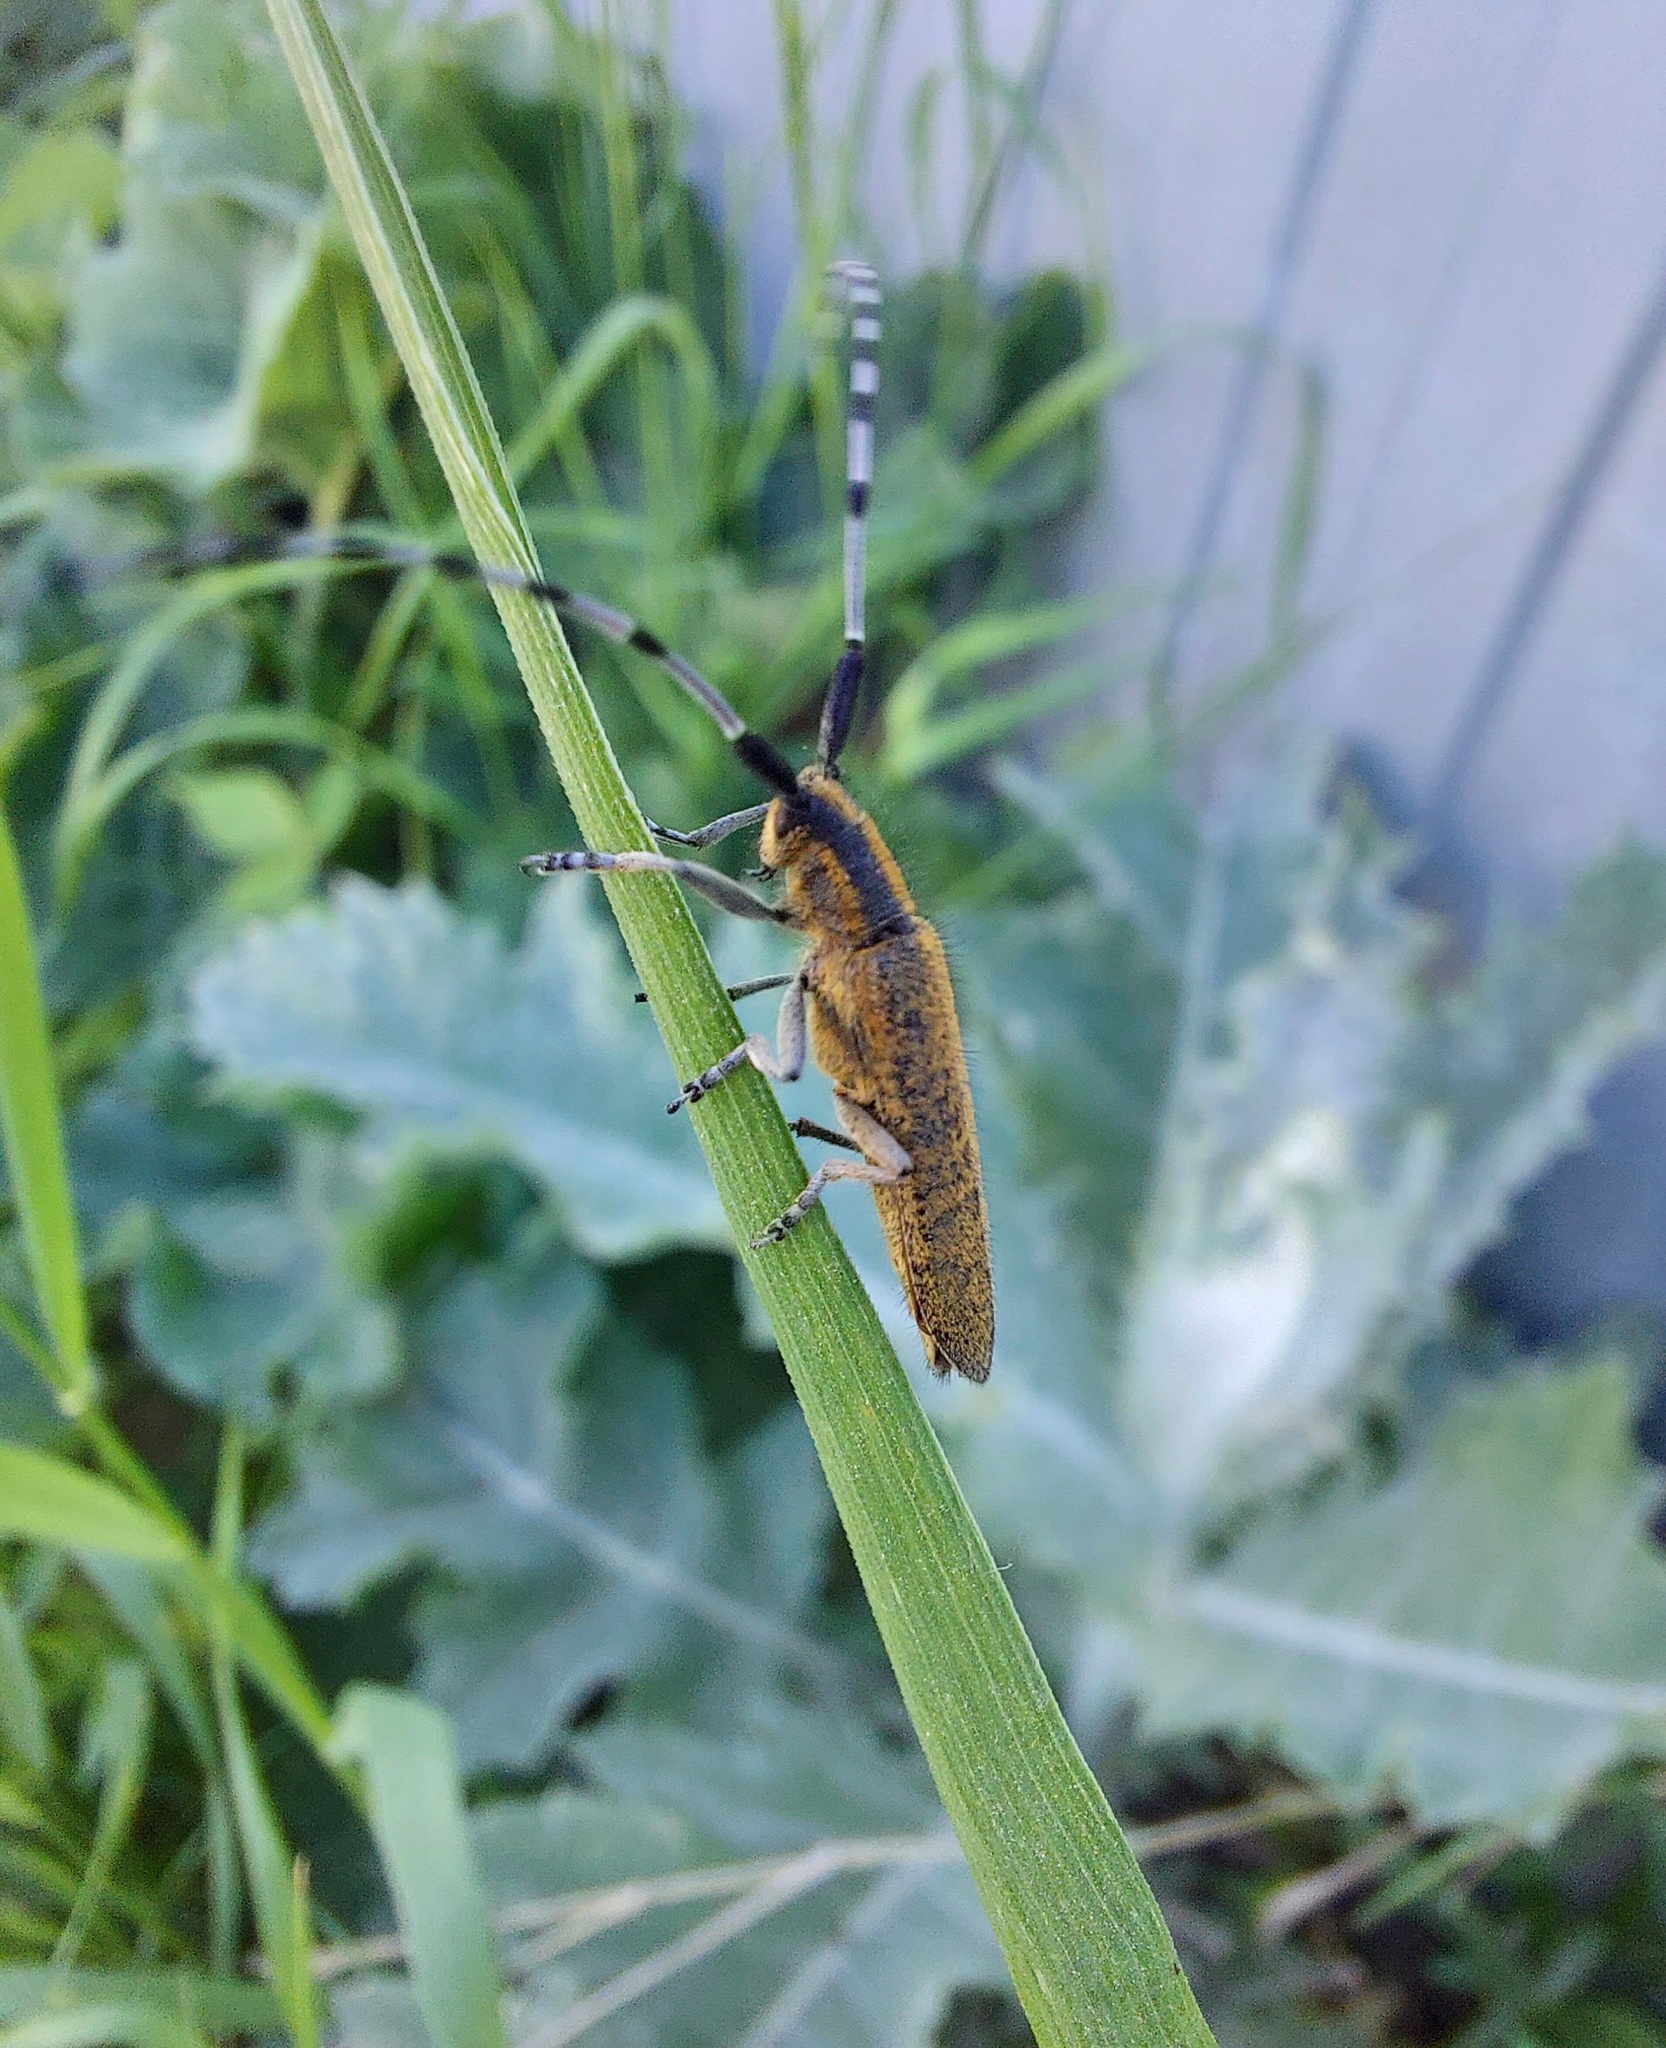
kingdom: Animalia
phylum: Arthropoda
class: Insecta
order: Coleoptera
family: Cerambycidae
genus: Agapanthia
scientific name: Agapanthia villosoviridescens
